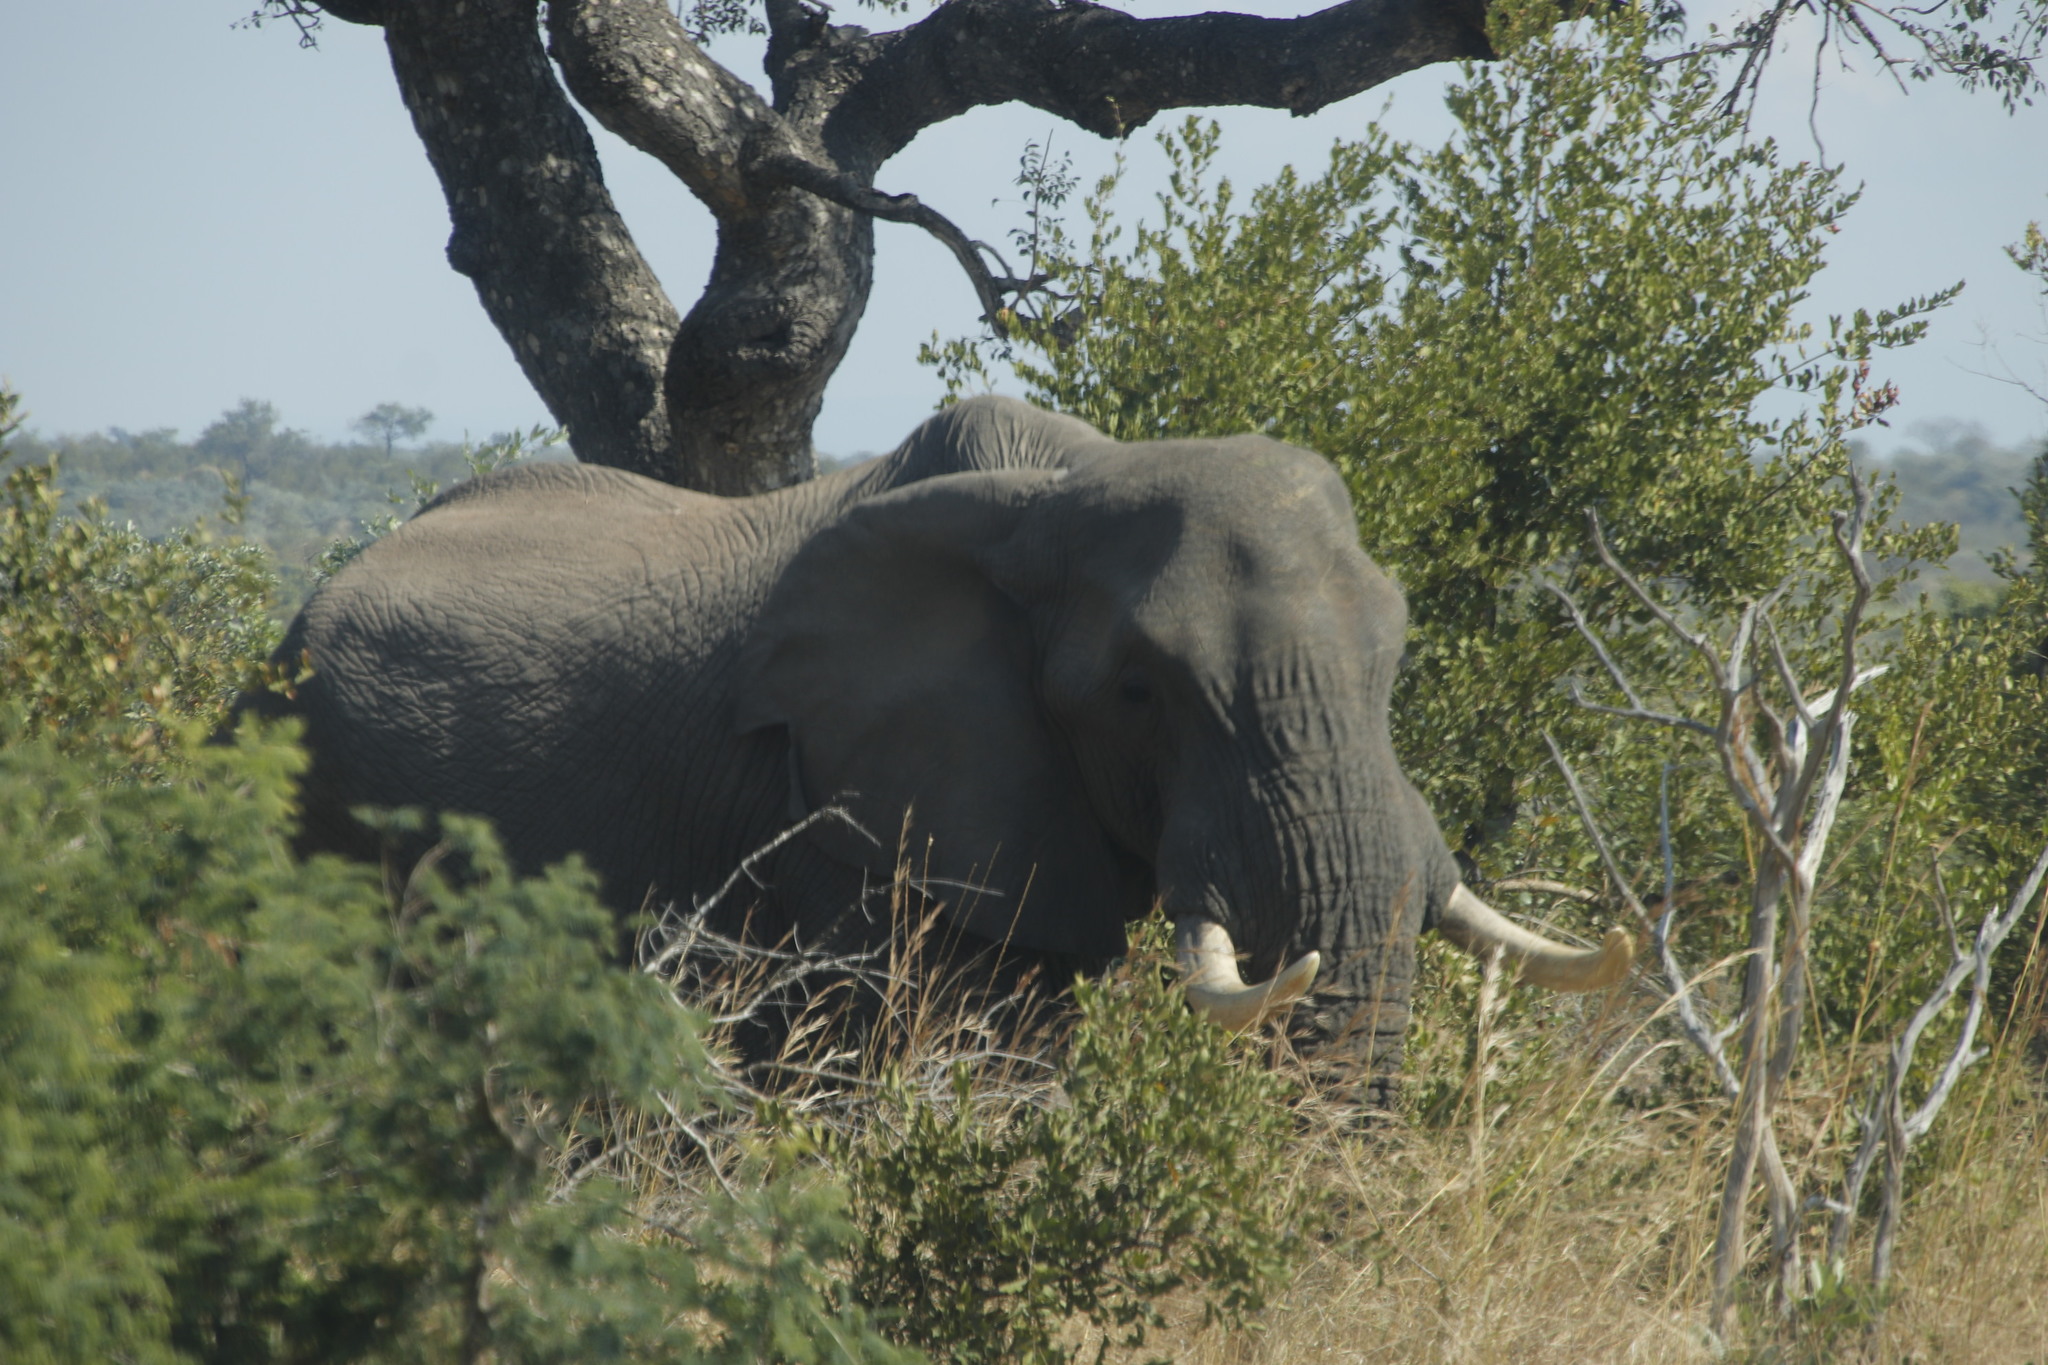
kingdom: Animalia
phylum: Chordata
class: Mammalia
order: Proboscidea
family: Elephantidae
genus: Loxodonta
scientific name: Loxodonta africana
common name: African elephant
